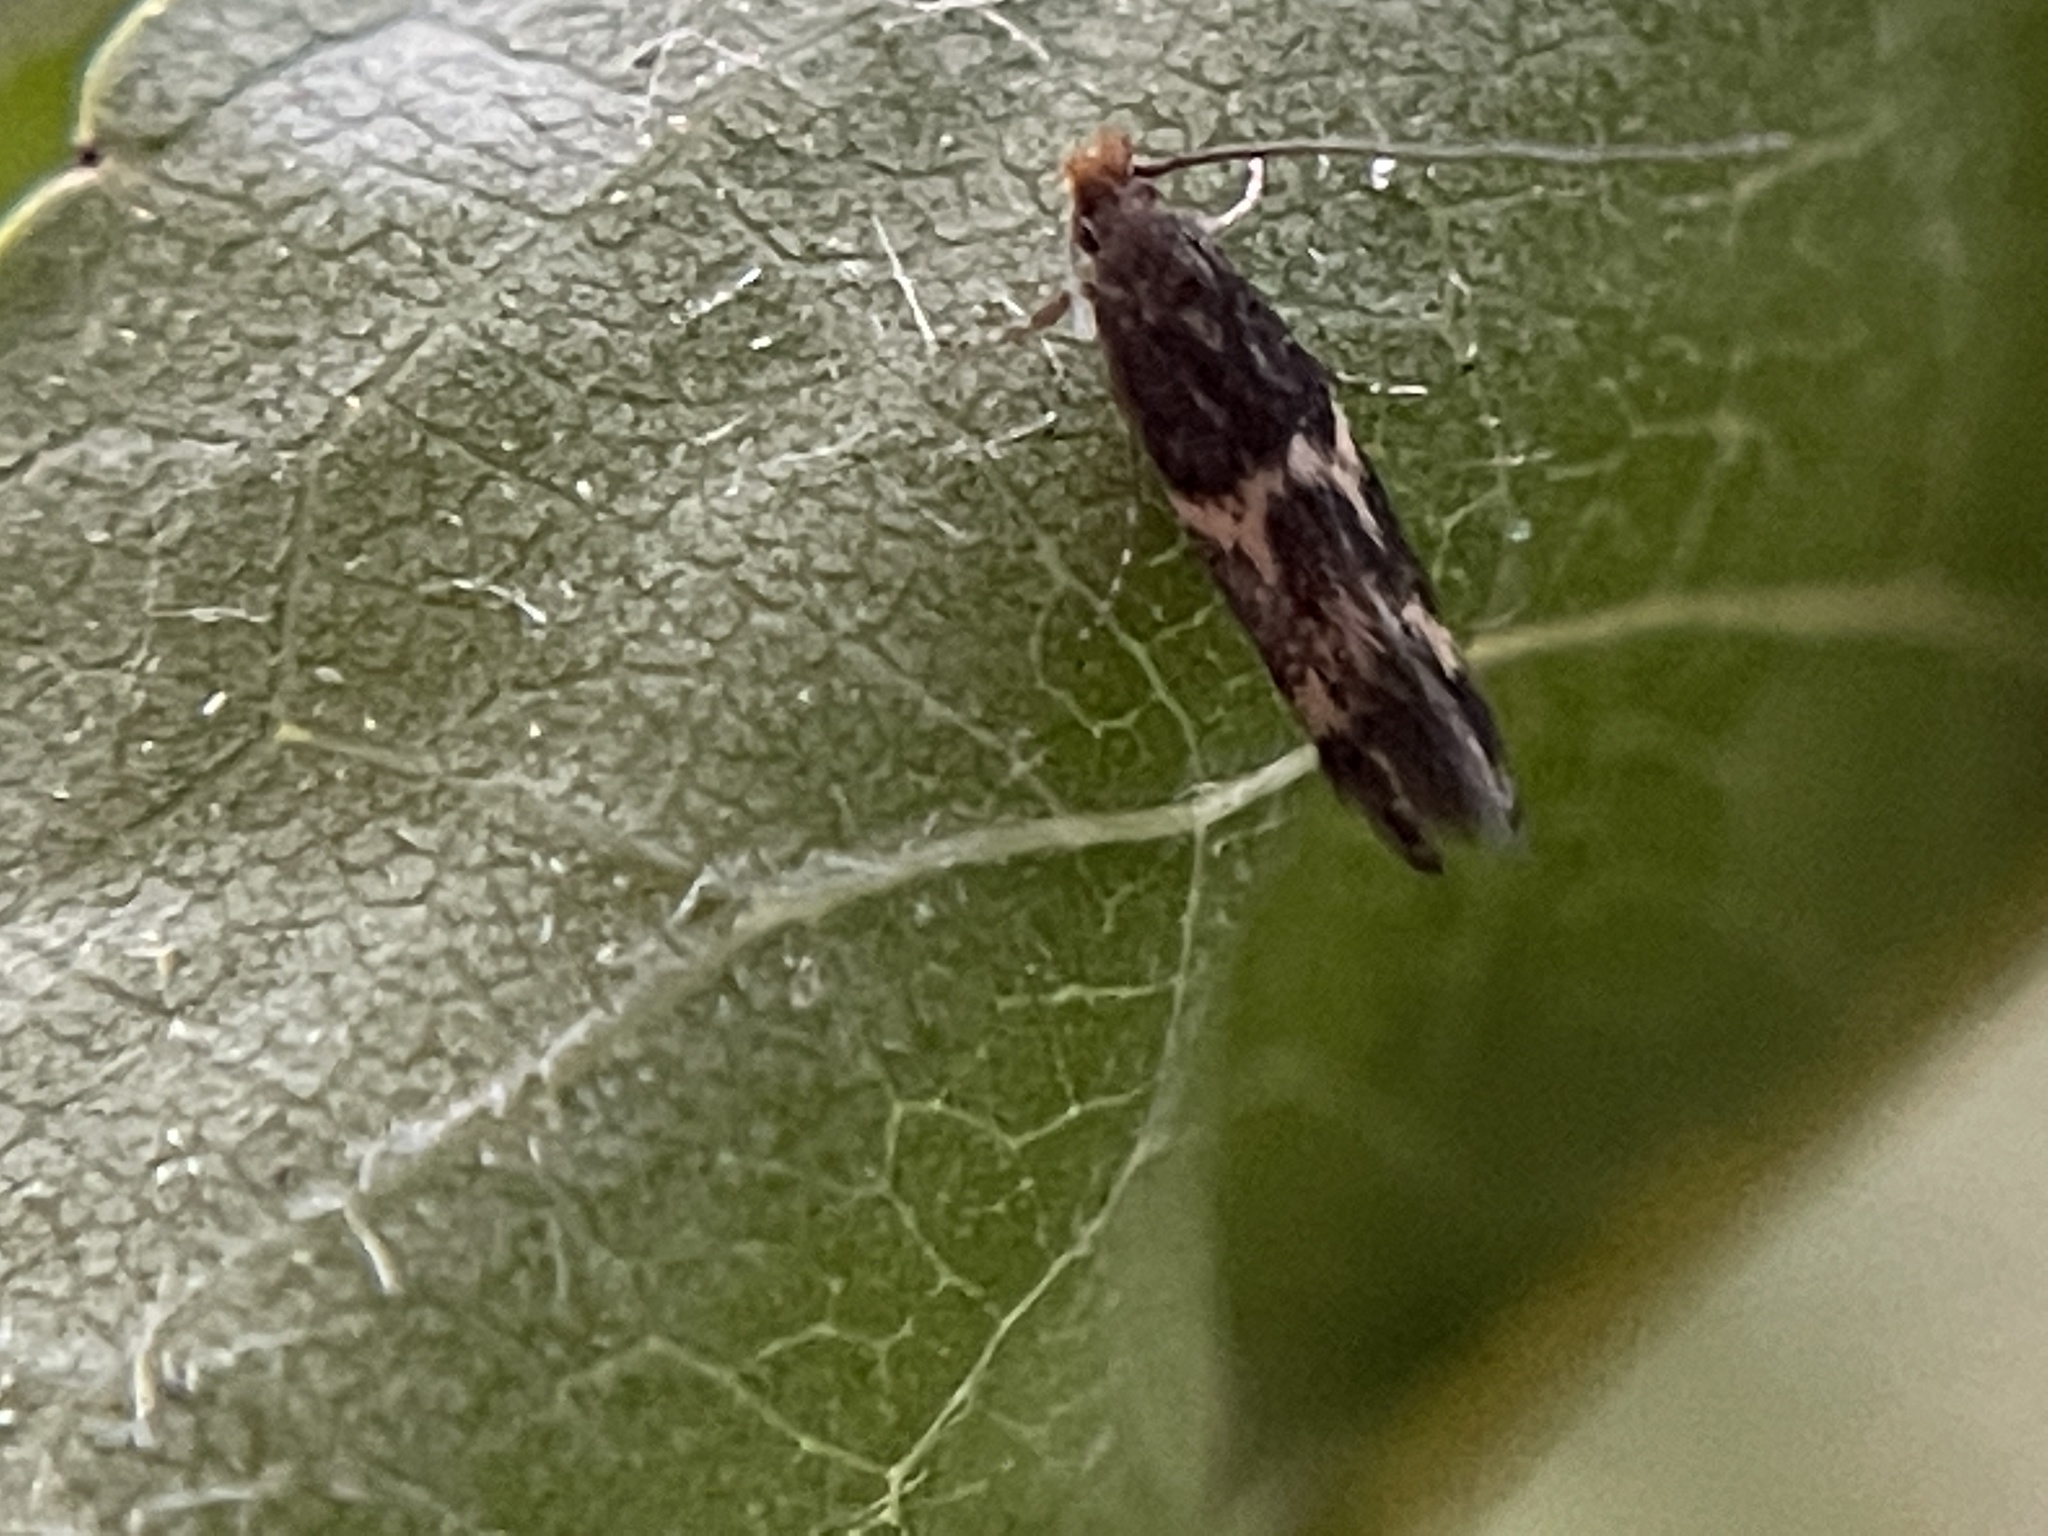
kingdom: Animalia
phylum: Arthropoda
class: Insecta
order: Lepidoptera
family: Tineidae
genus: Oinophila
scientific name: Oinophila v-flava
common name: Yellow v moth
